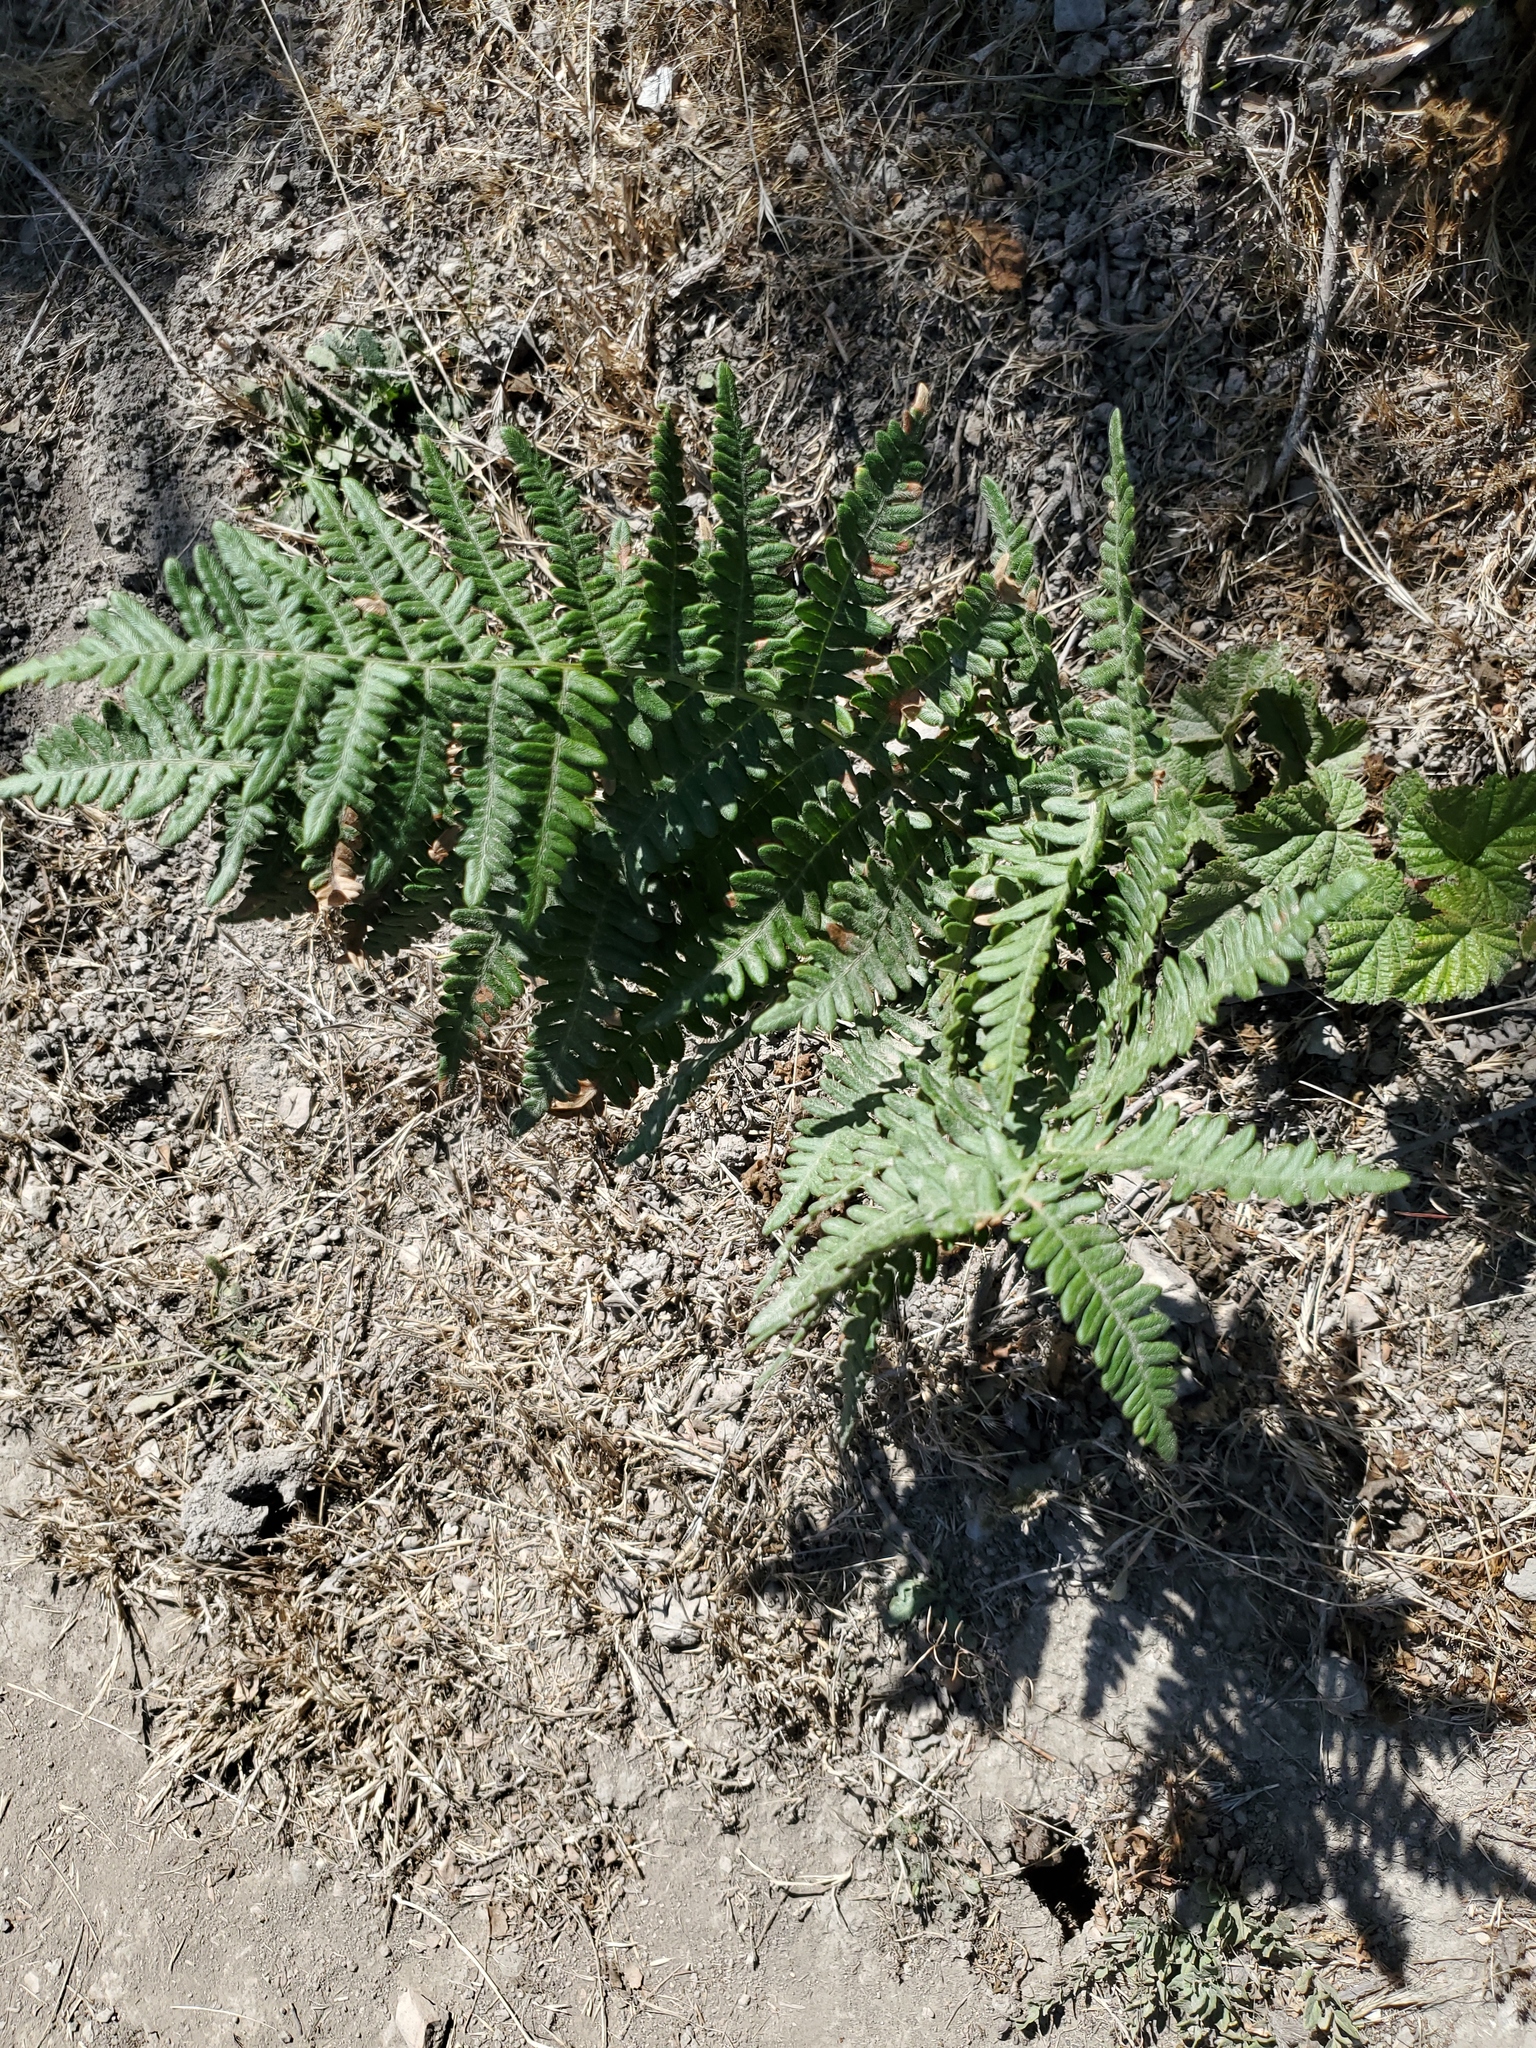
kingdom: Plantae
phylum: Tracheophyta
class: Polypodiopsida
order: Polypodiales
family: Dennstaedtiaceae
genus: Pteridium
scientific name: Pteridium aquilinum
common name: Bracken
